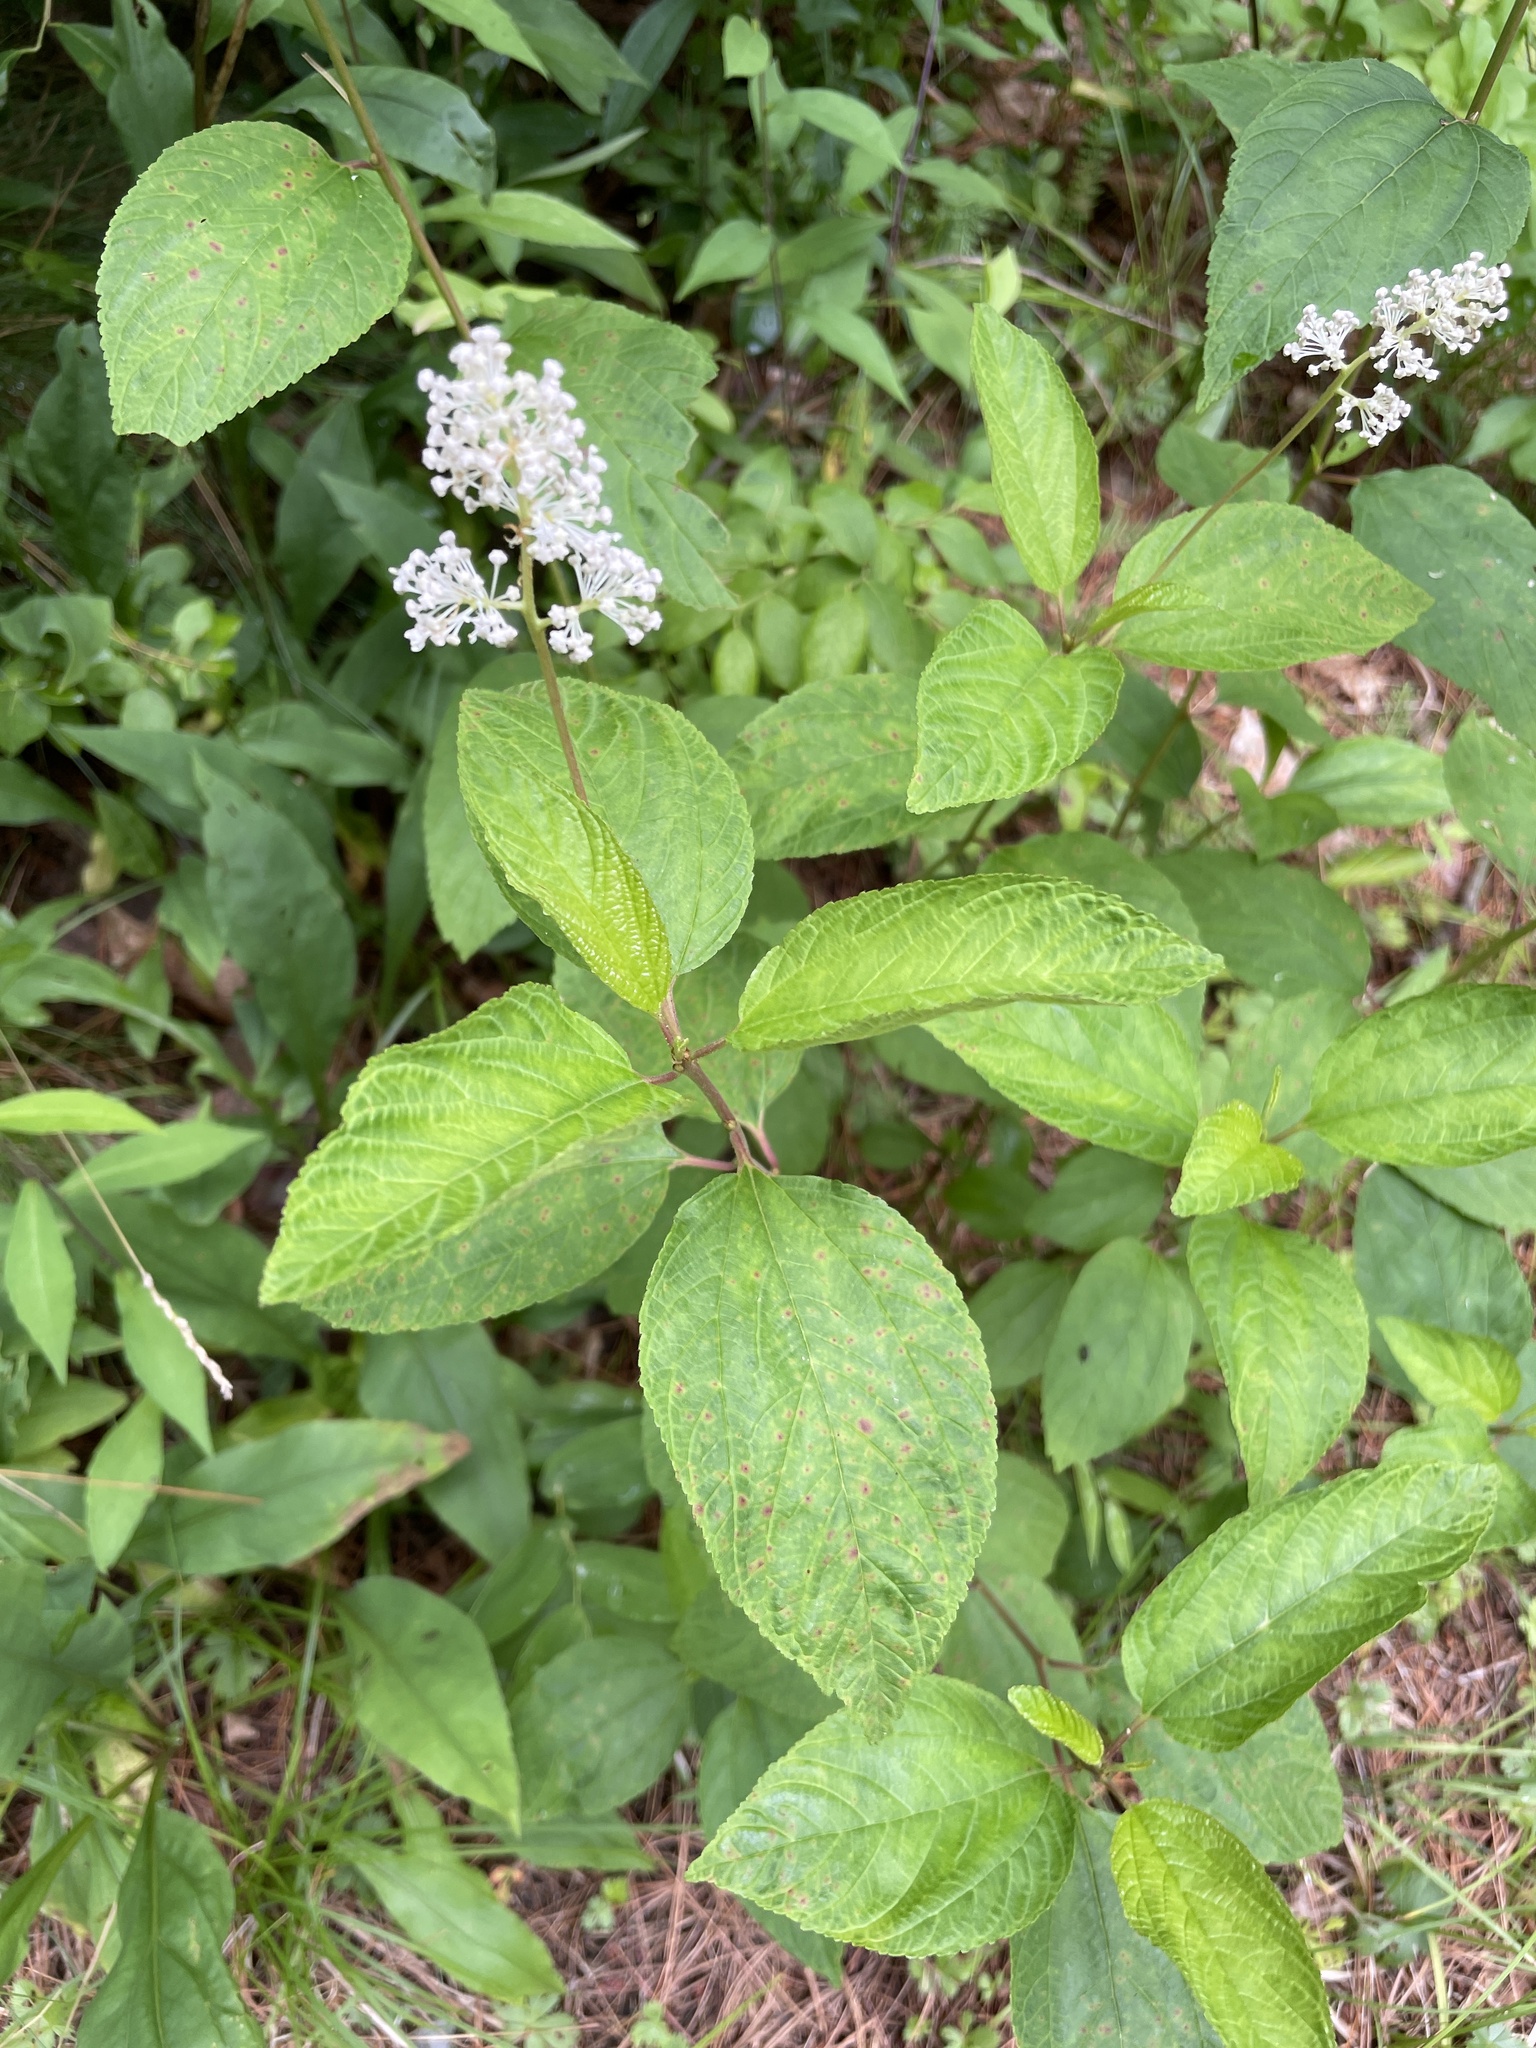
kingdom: Plantae
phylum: Tracheophyta
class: Magnoliopsida
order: Rosales
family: Rhamnaceae
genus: Ceanothus
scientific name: Ceanothus americanus
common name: Redroot
